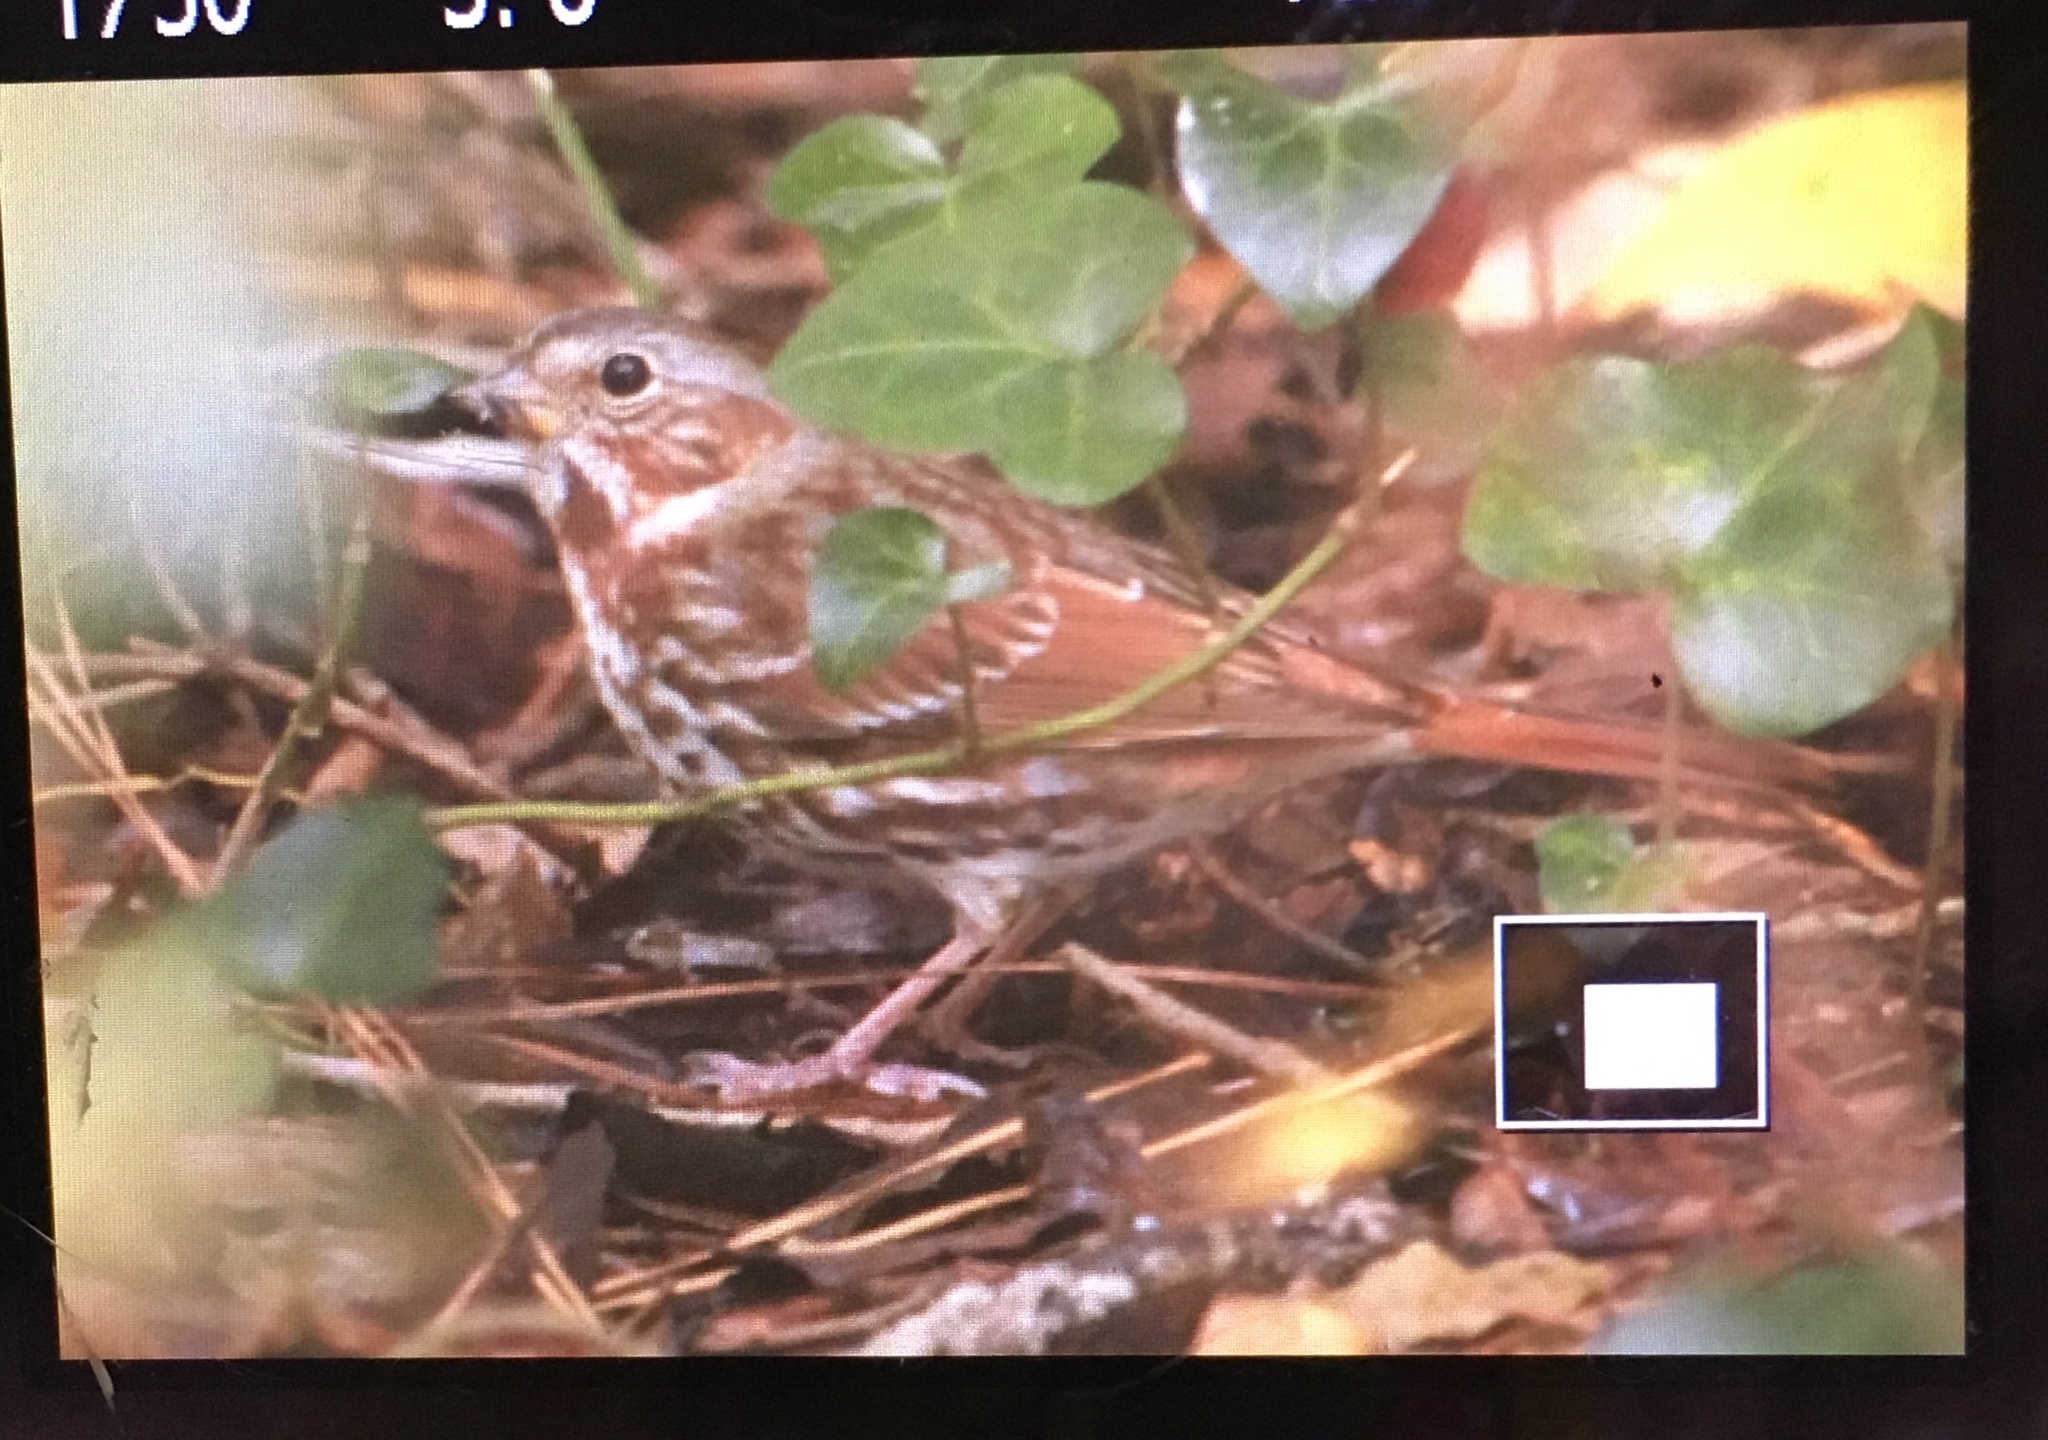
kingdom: Animalia
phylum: Chordata
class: Aves
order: Passeriformes
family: Passerellidae
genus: Passerella
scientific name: Passerella iliaca
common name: Fox sparrow
